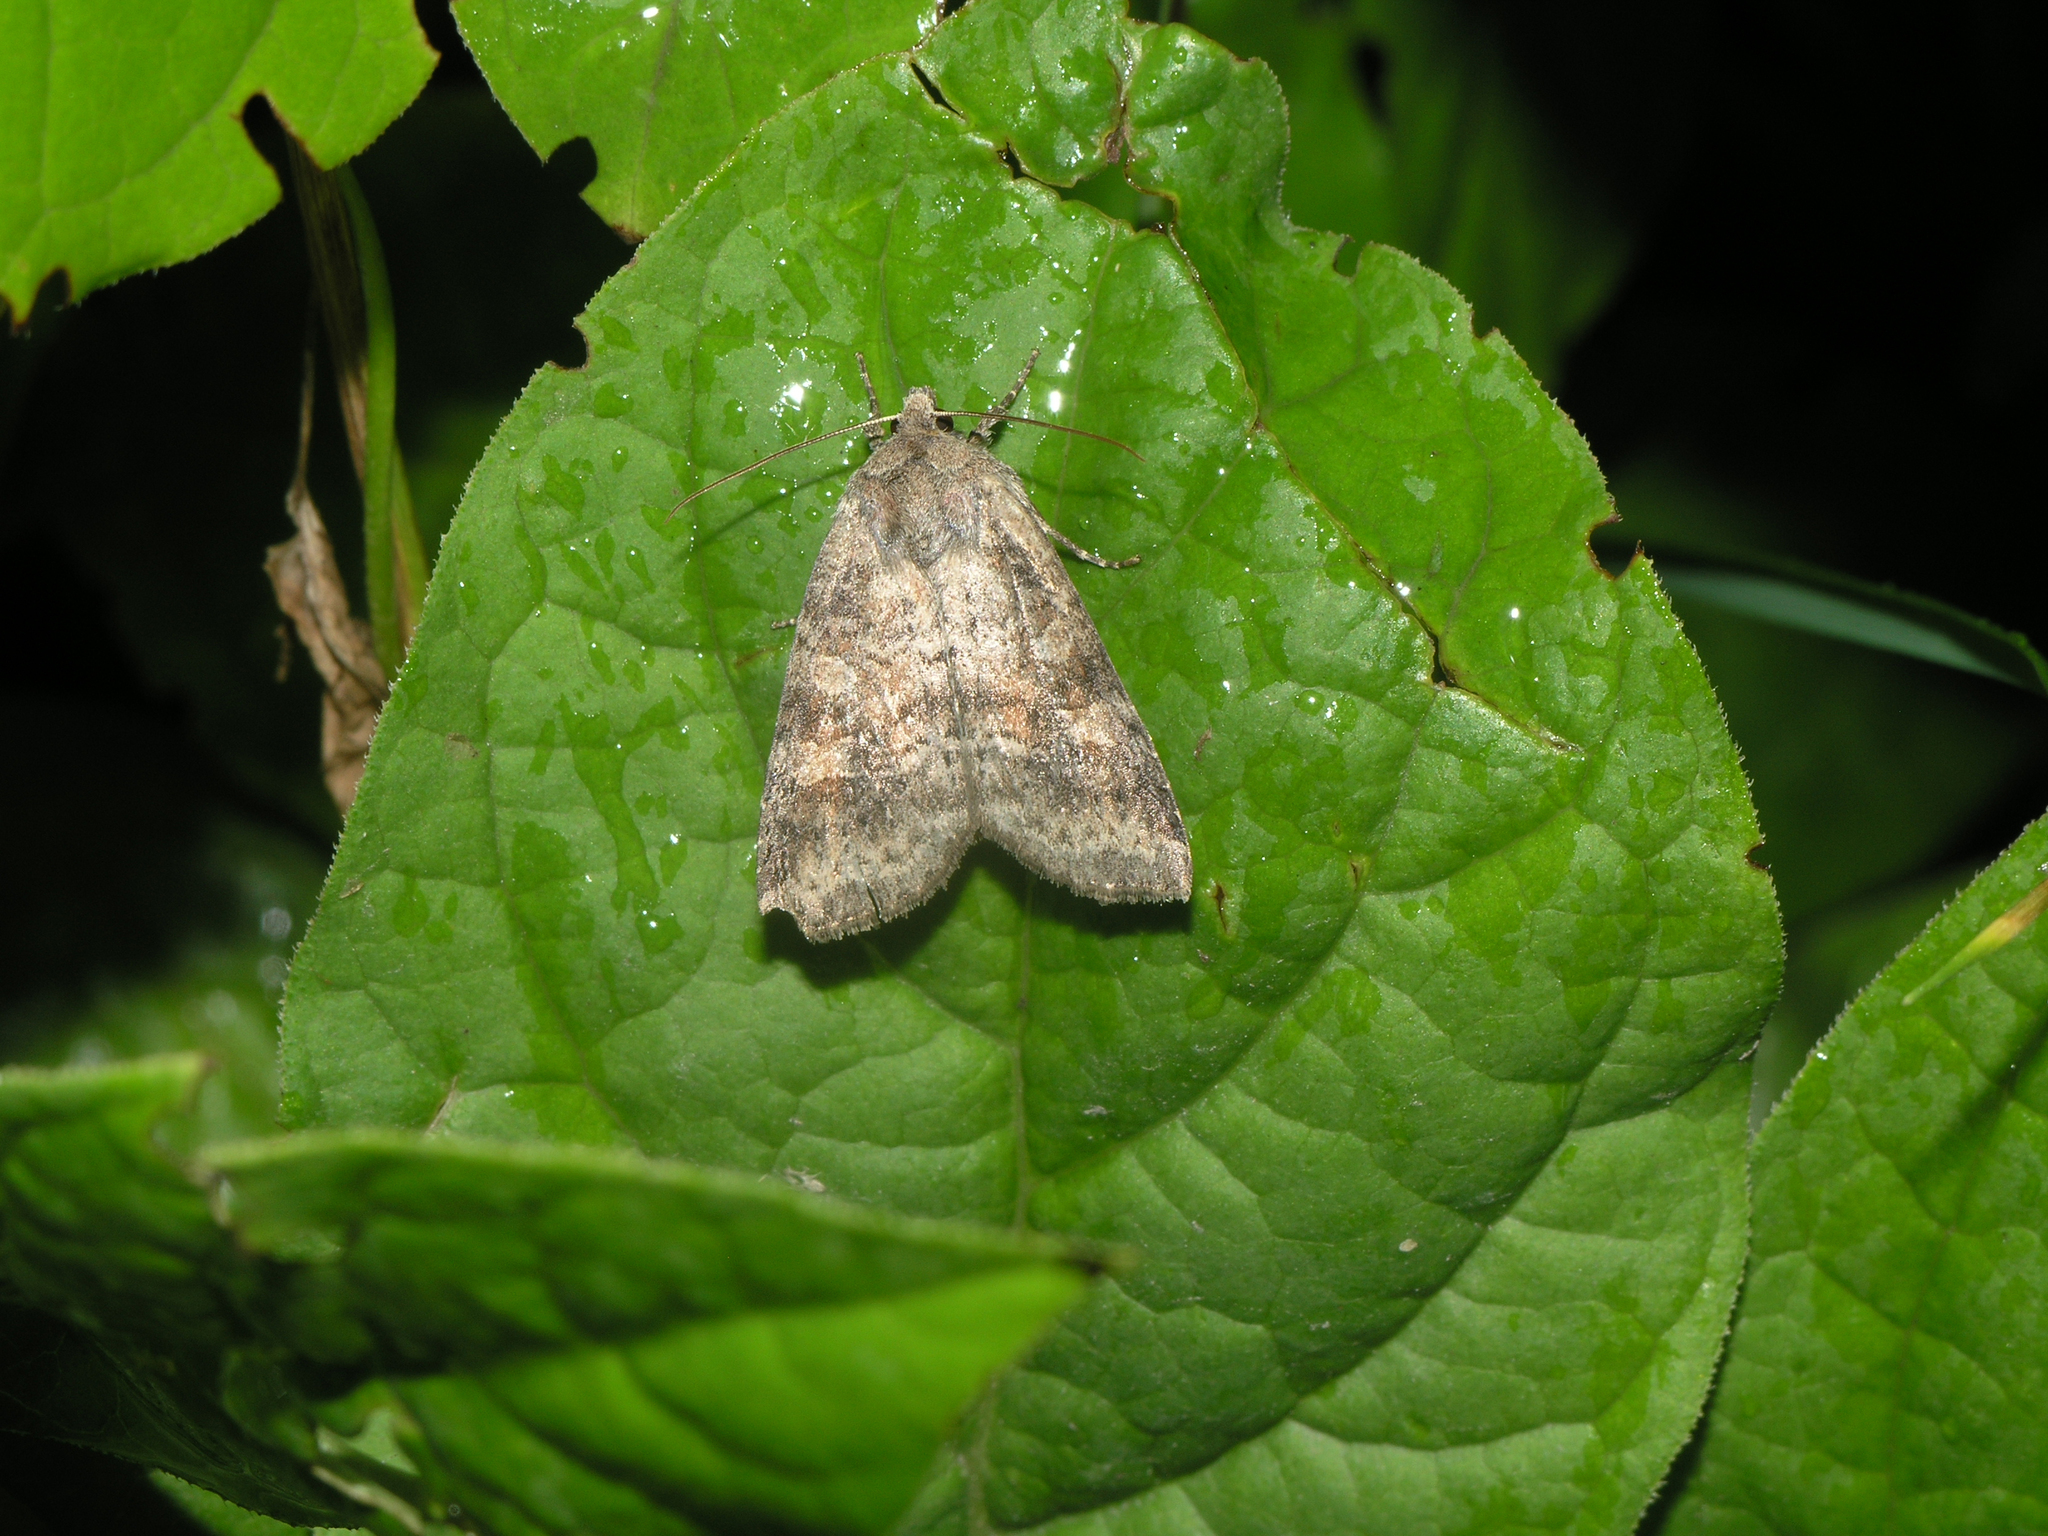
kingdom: Animalia
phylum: Arthropoda
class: Insecta
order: Lepidoptera
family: Noctuidae
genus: Parastichtis
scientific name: Parastichtis suspecta
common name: Suspected
